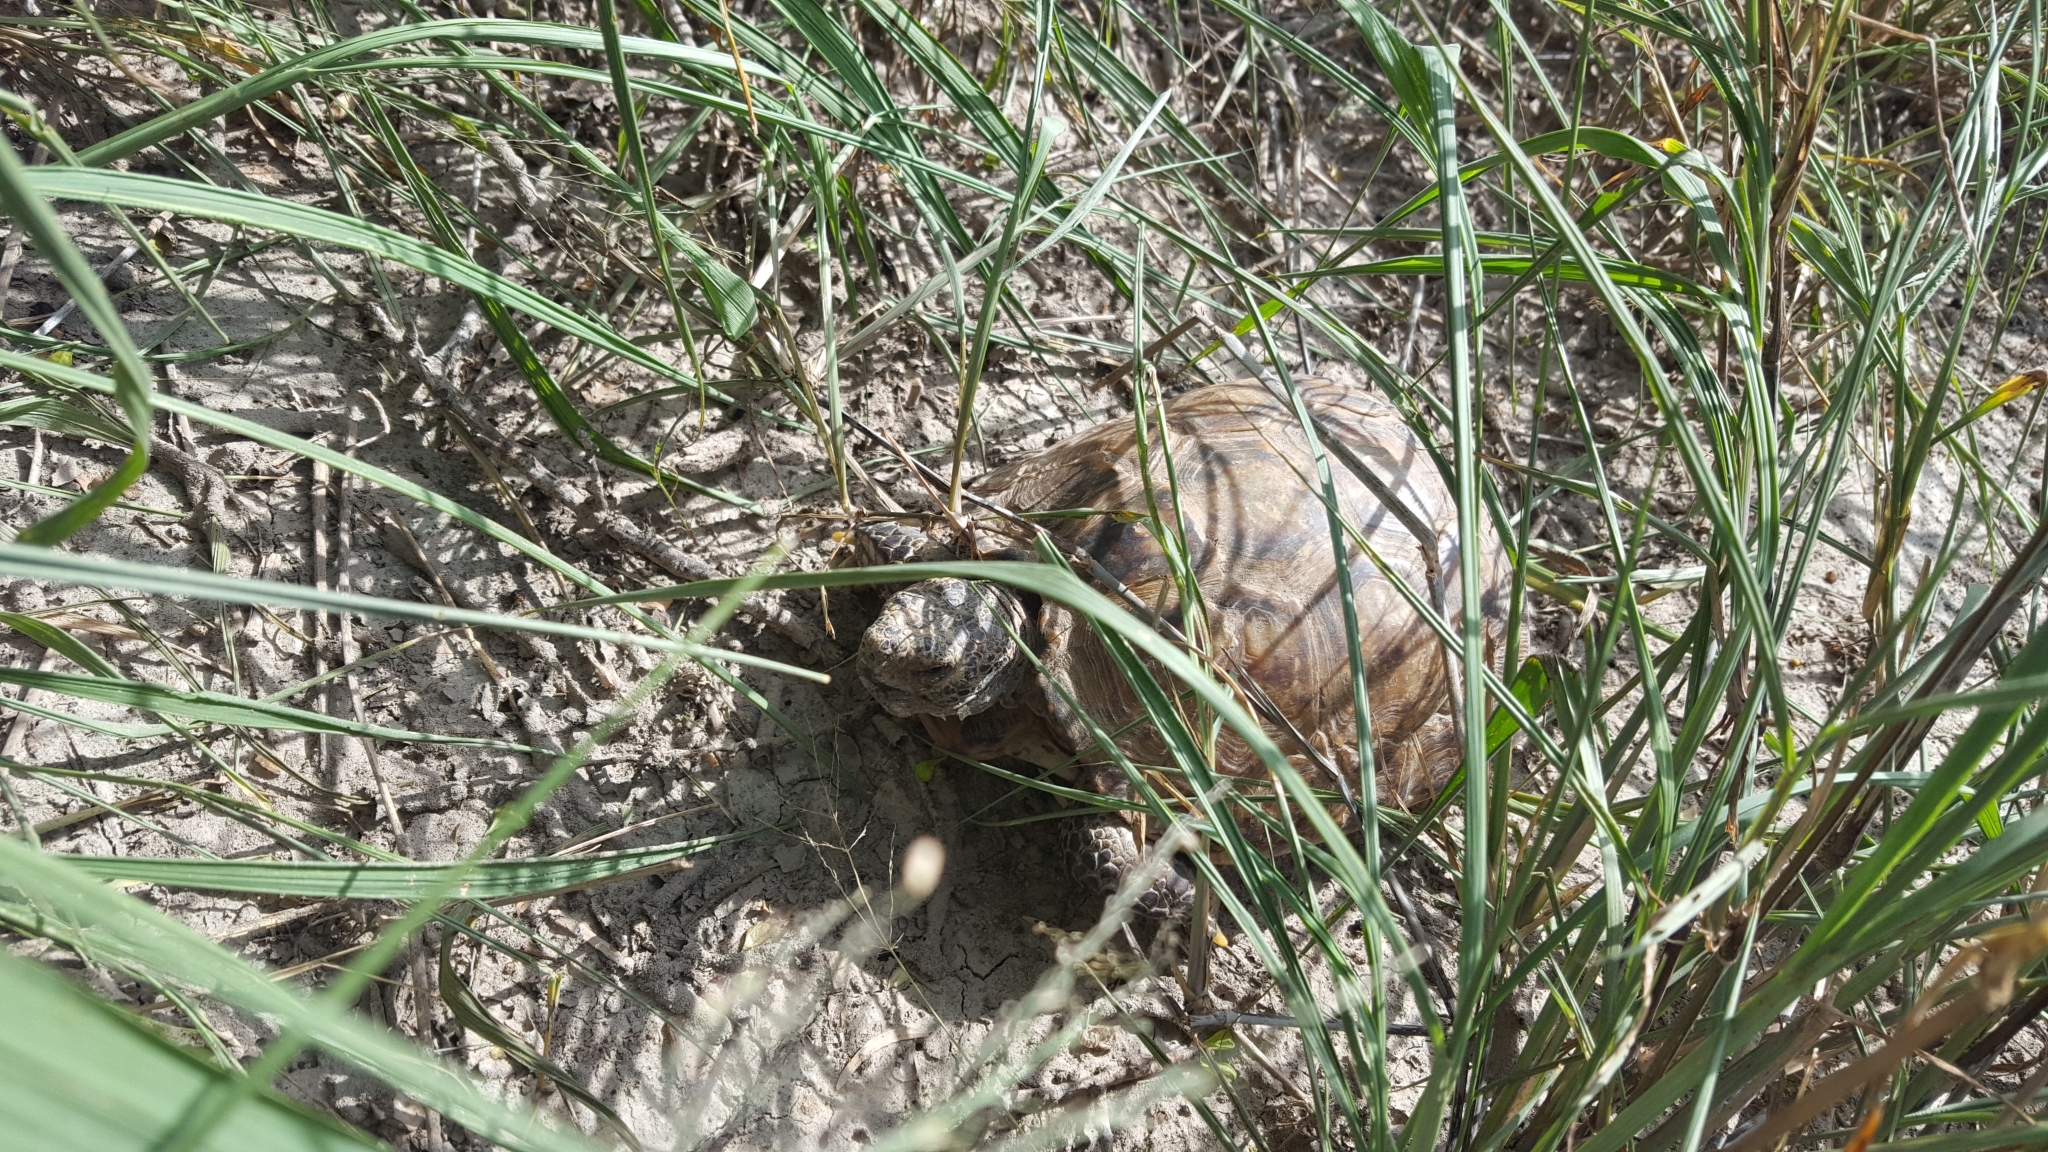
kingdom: Animalia
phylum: Chordata
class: Testudines
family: Testudinidae
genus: Gopherus
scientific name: Gopherus berlandieri
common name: Texas (gopher )tortoise
